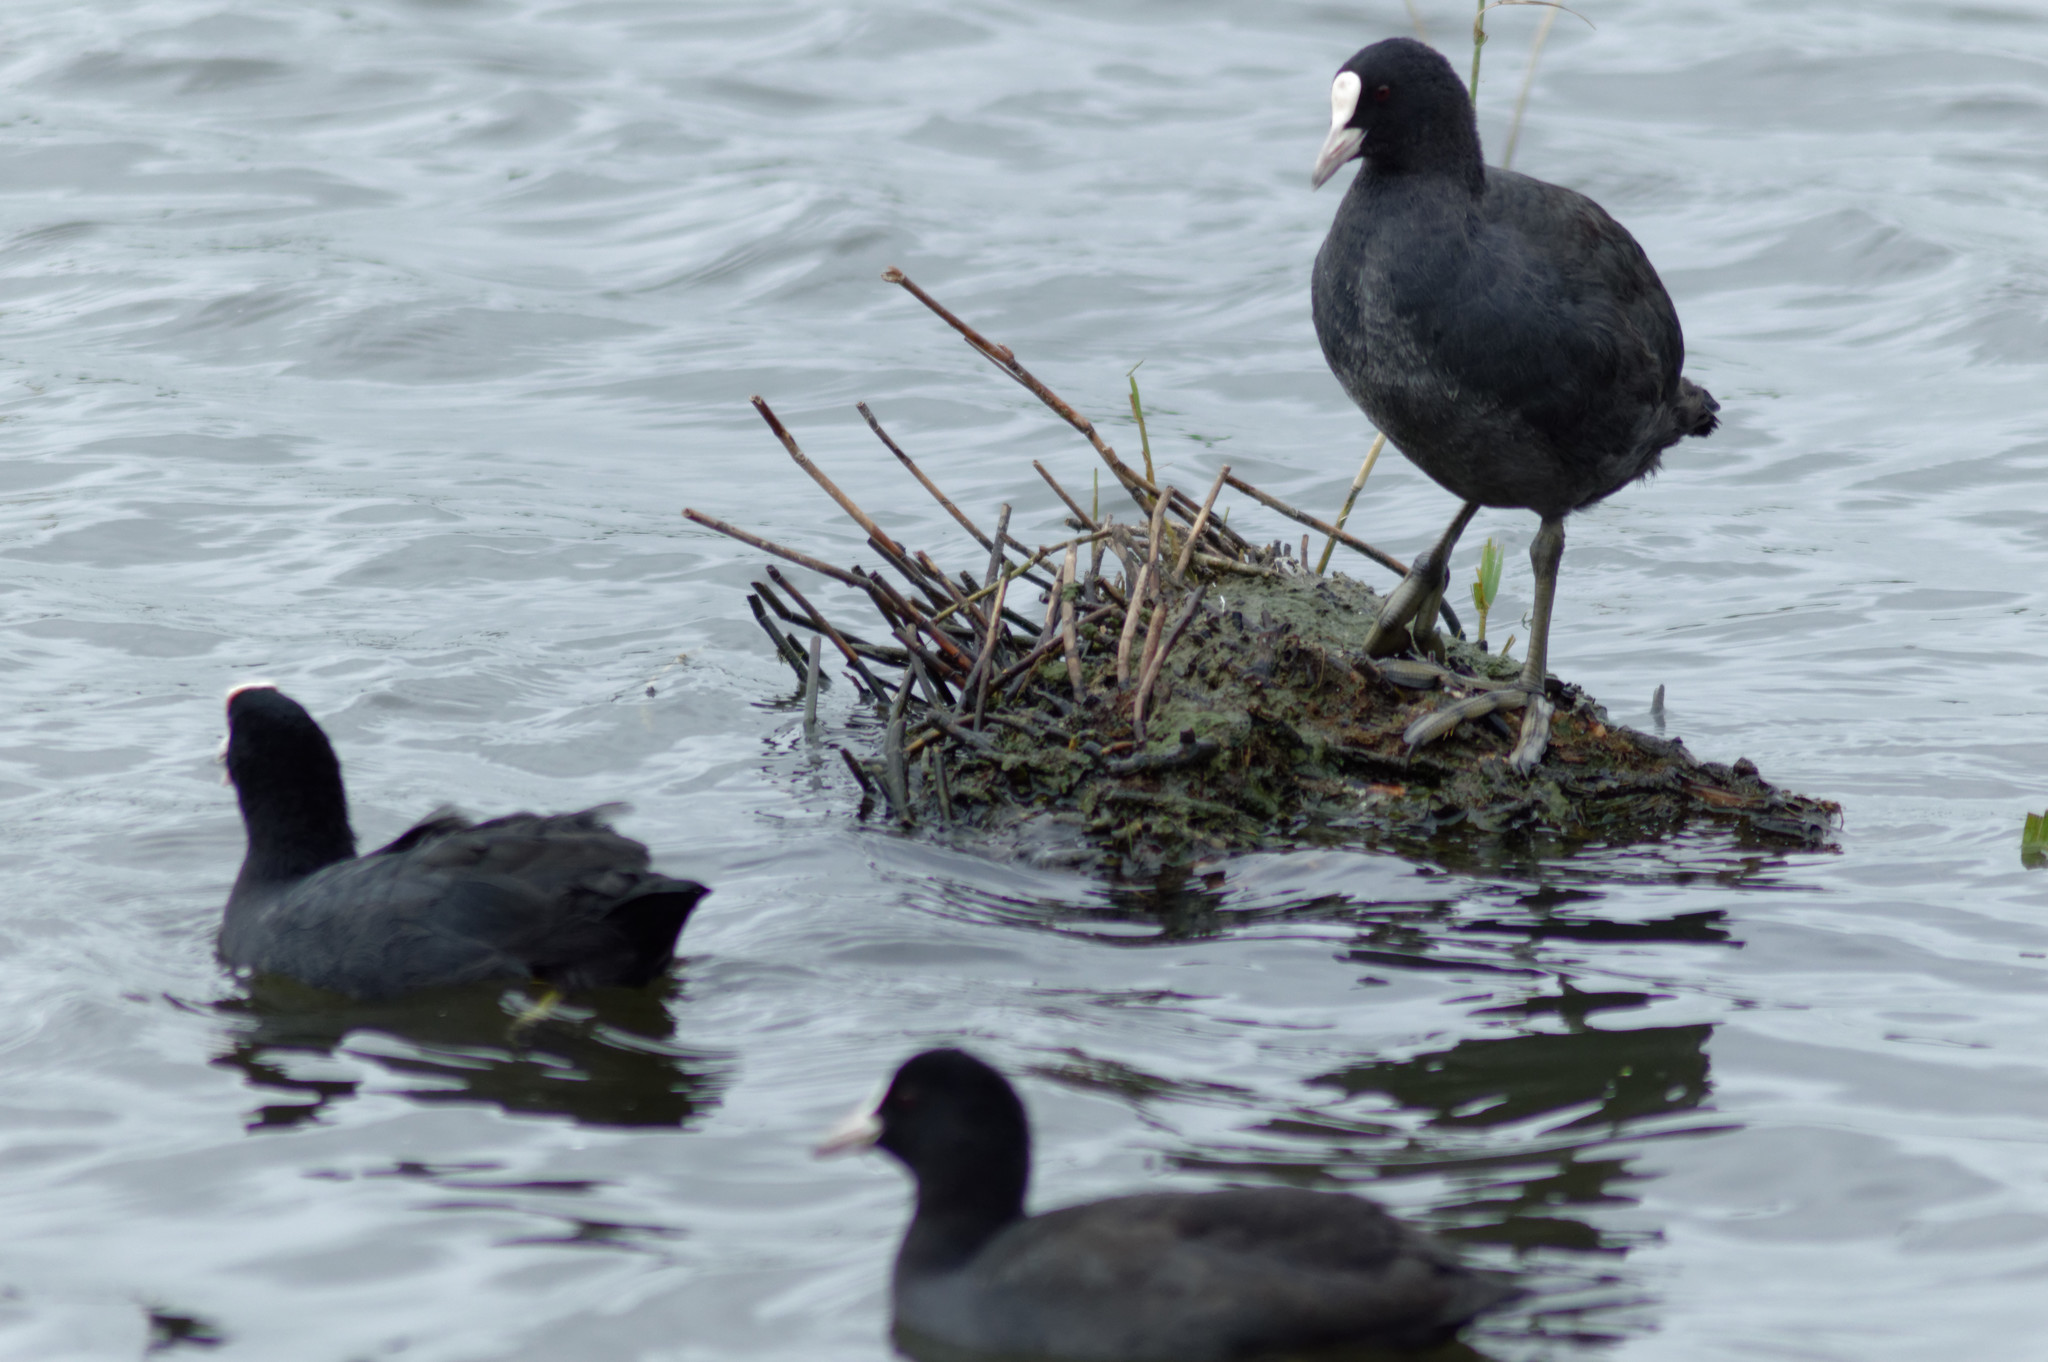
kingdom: Animalia
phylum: Chordata
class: Aves
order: Gruiformes
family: Rallidae
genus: Fulica
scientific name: Fulica atra
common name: Eurasian coot
